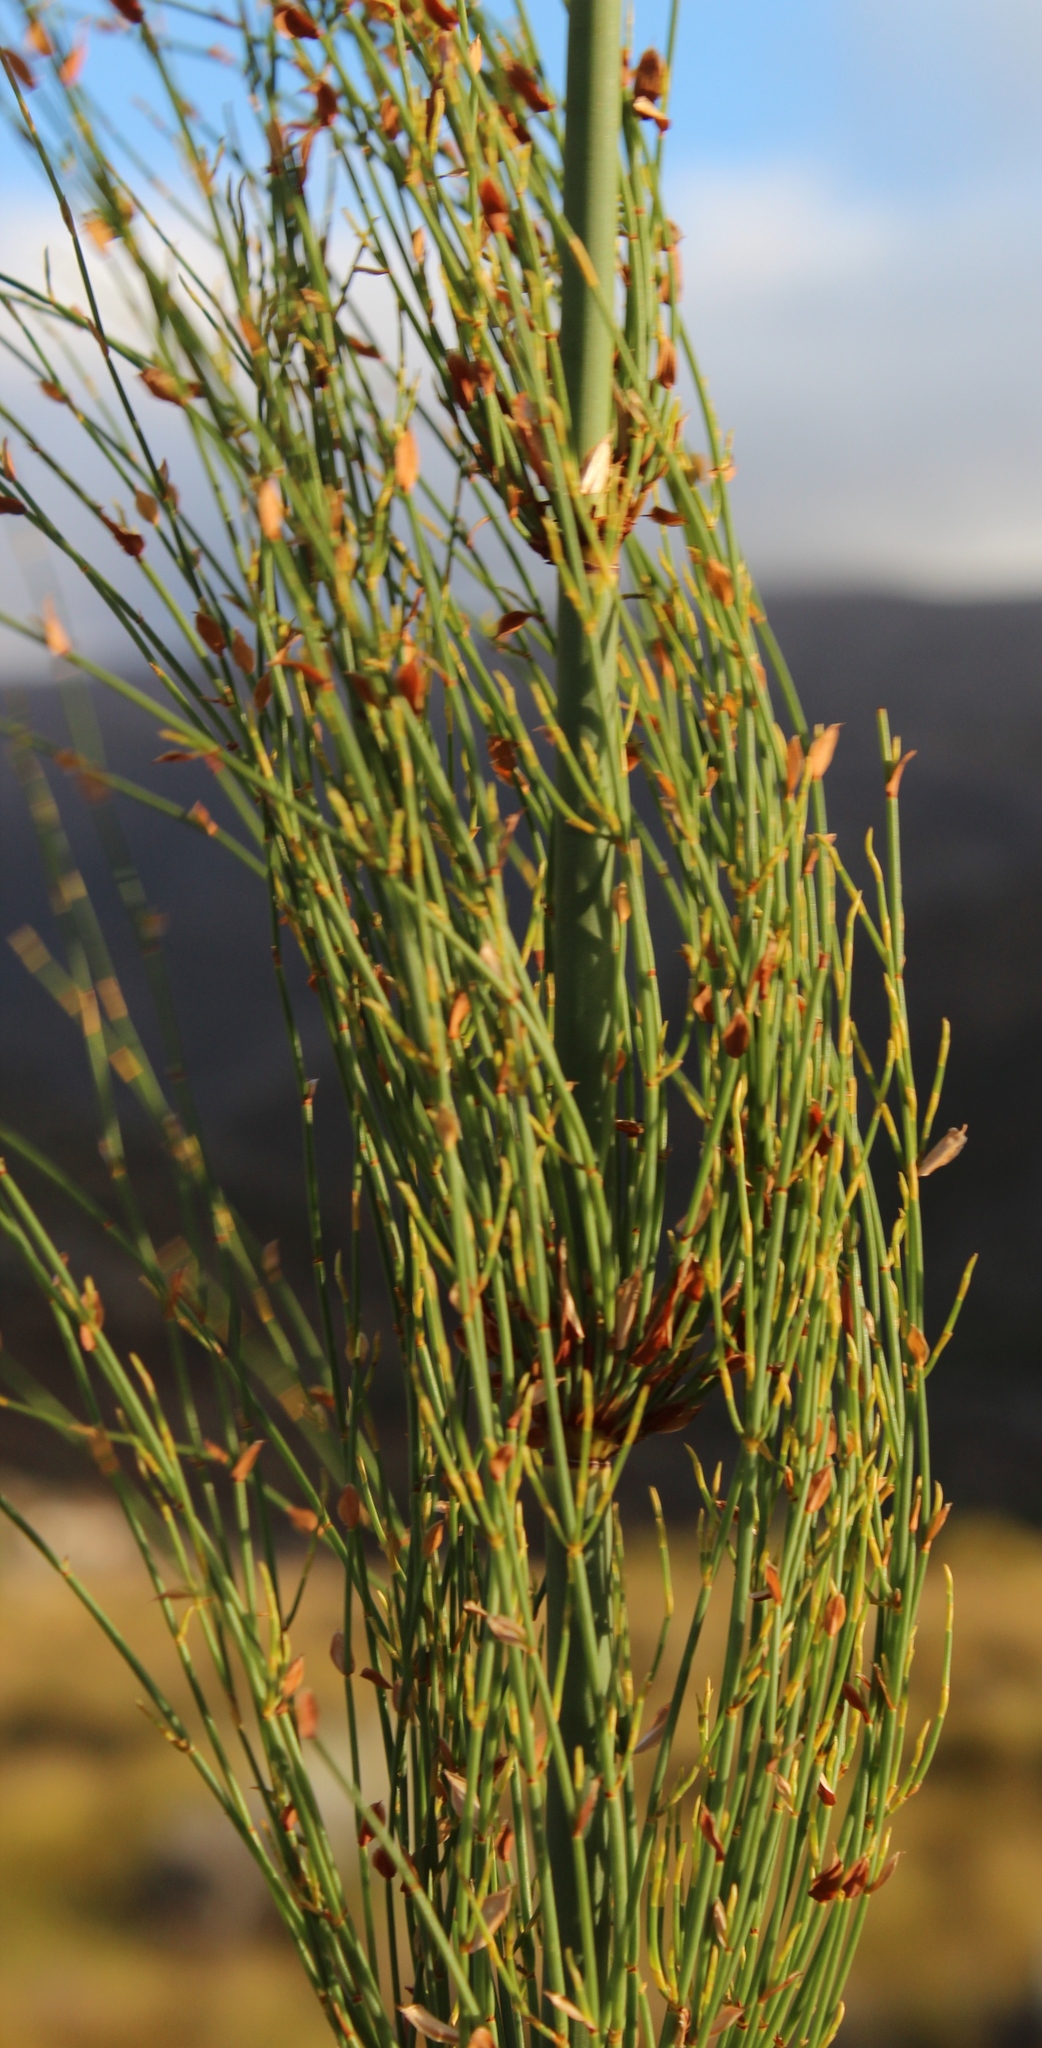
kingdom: Plantae
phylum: Tracheophyta
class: Liliopsida
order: Poales
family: Restionaceae
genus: Elegia
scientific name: Elegia capensis
